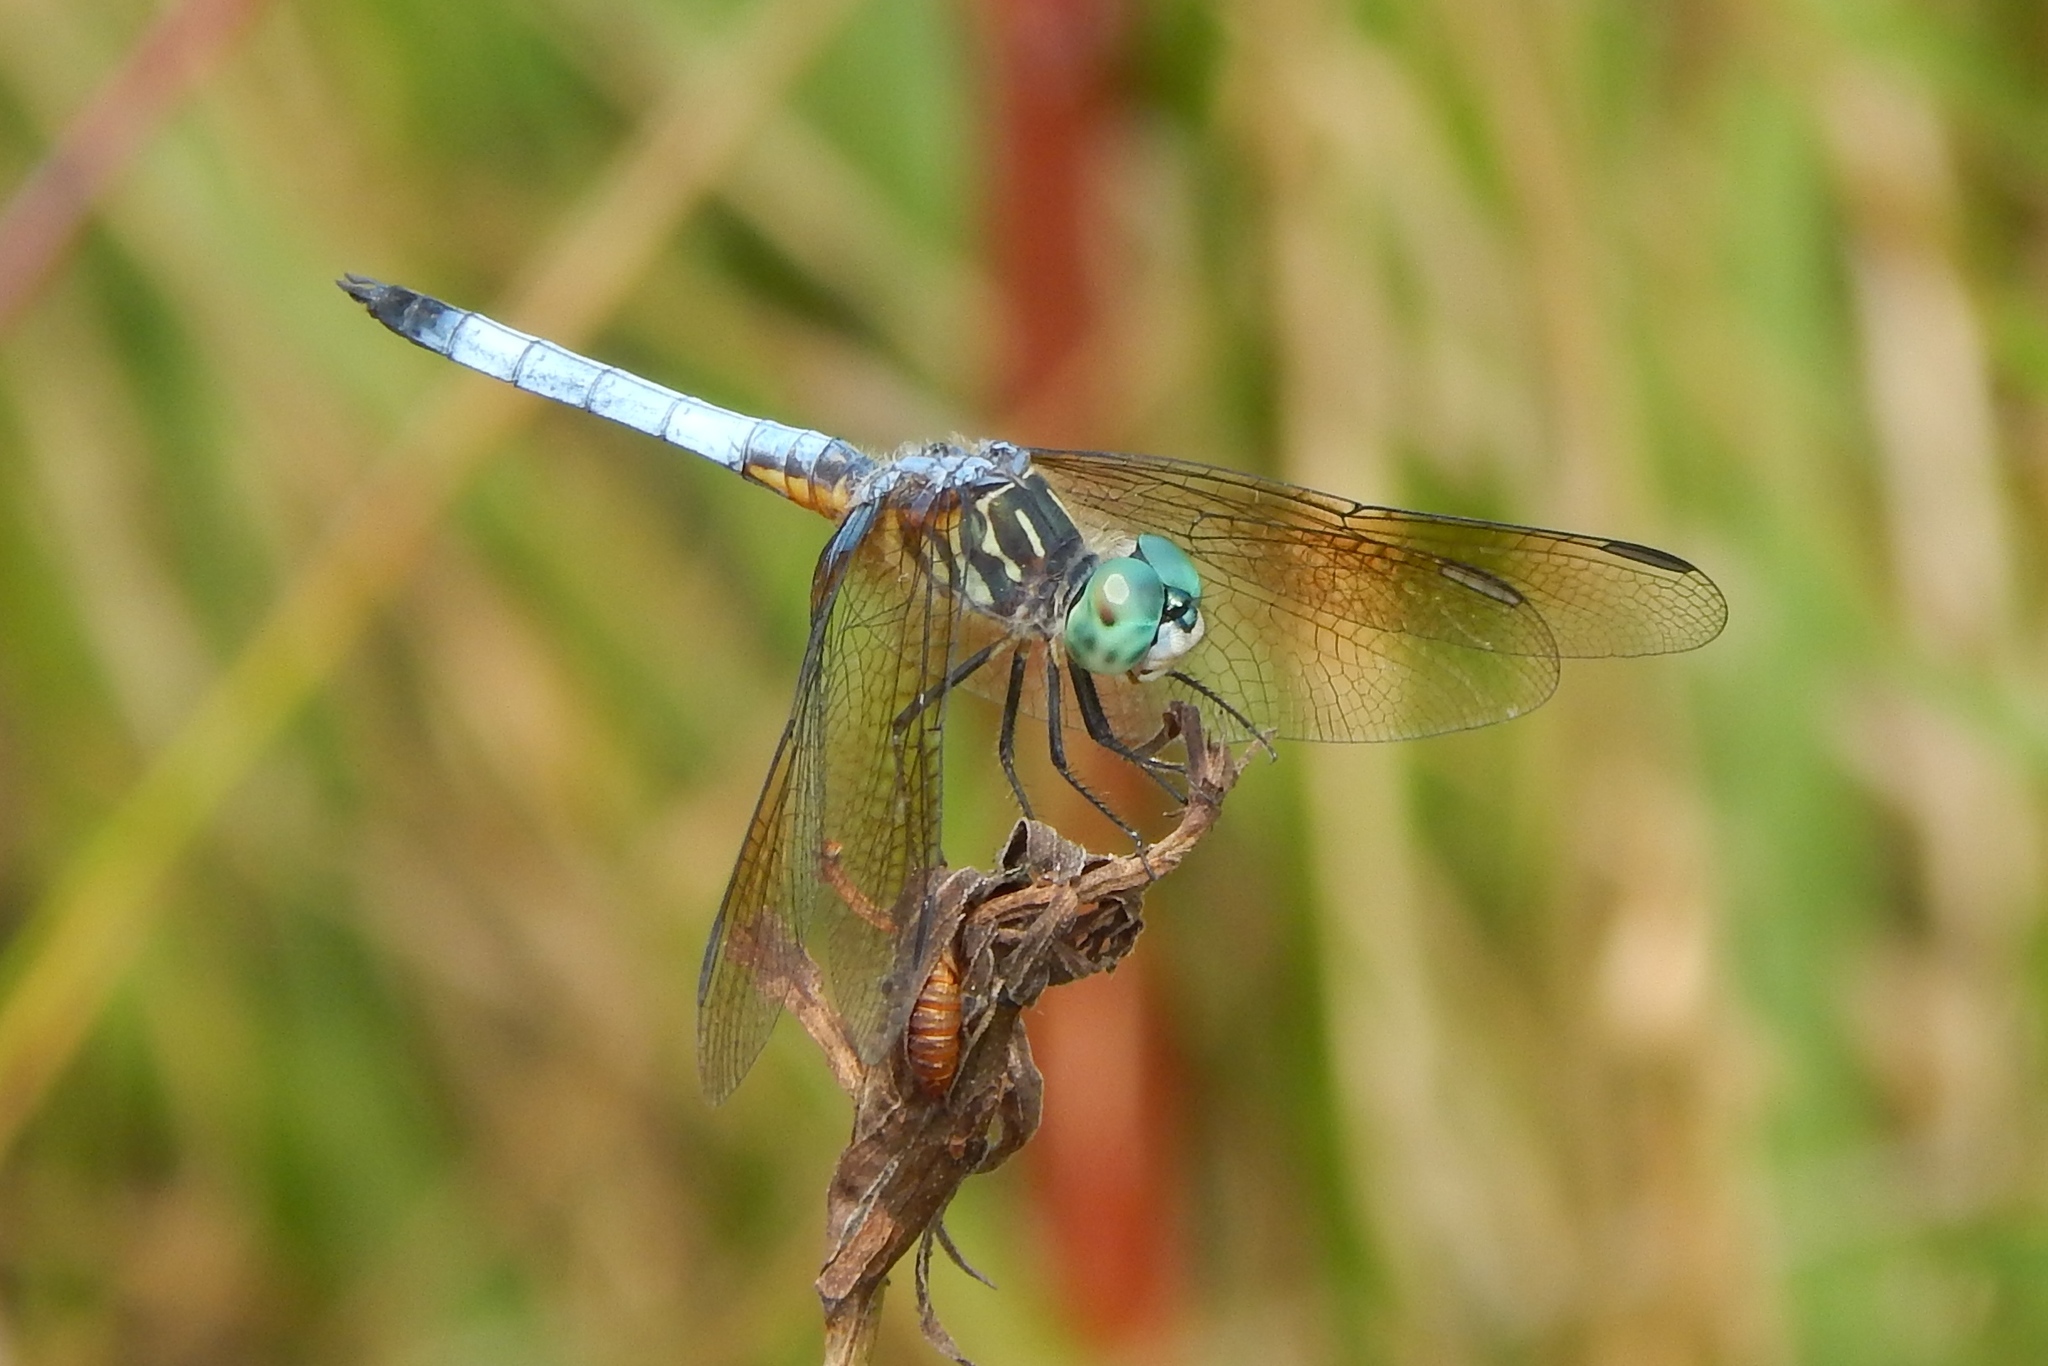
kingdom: Animalia
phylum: Arthropoda
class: Insecta
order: Odonata
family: Libellulidae
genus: Pachydiplax
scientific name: Pachydiplax longipennis
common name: Blue dasher
